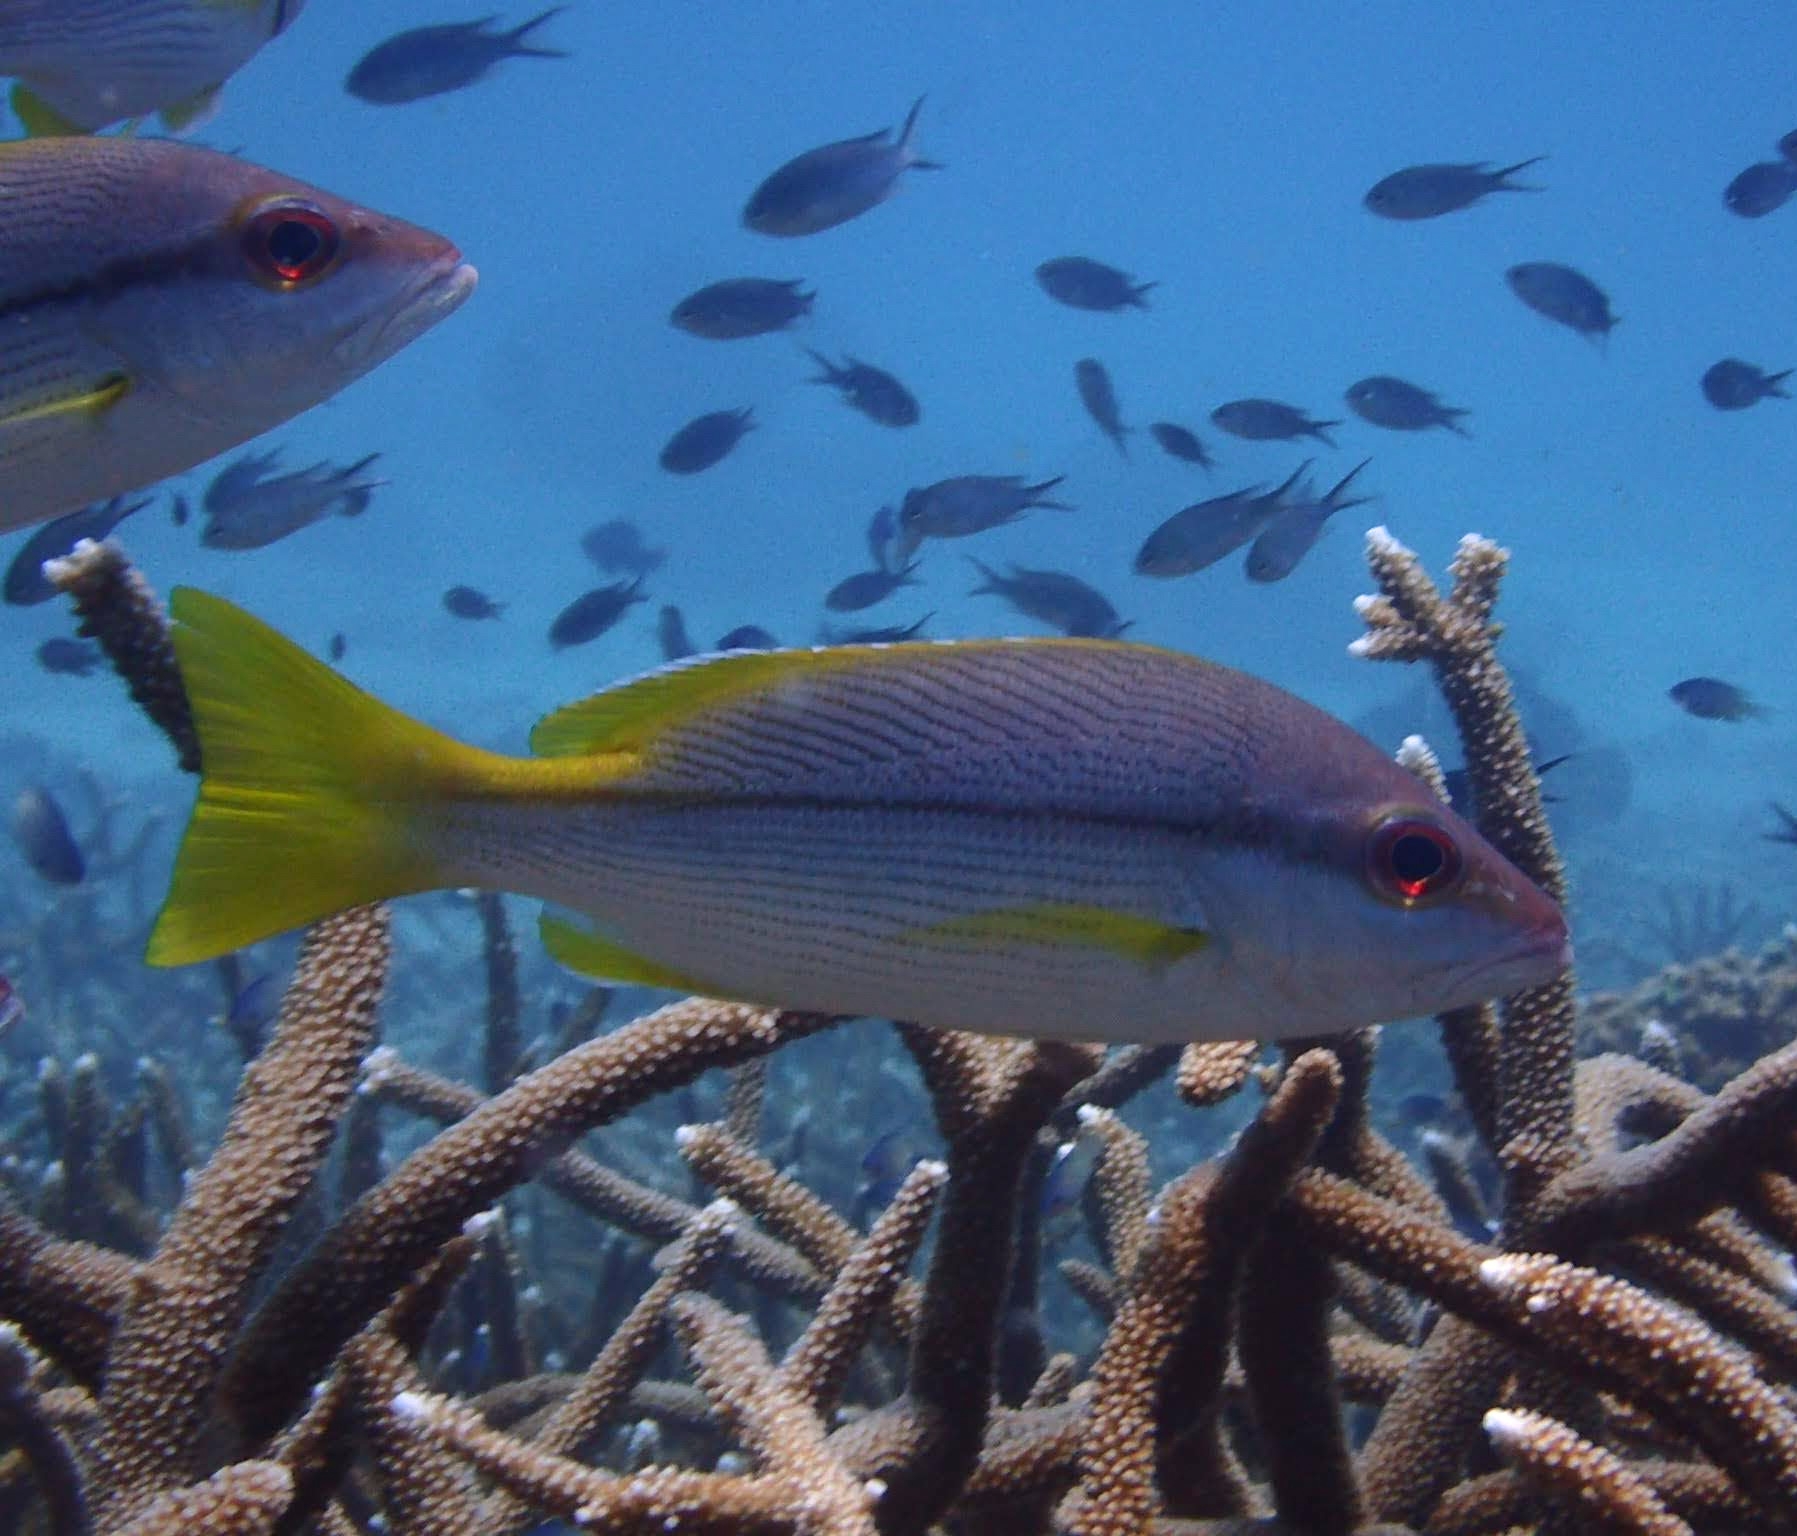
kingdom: Animalia
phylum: Chordata
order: Perciformes
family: Lutjanidae
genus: Lutjanus
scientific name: Lutjanus vitta
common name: Brownstripe red snapper
